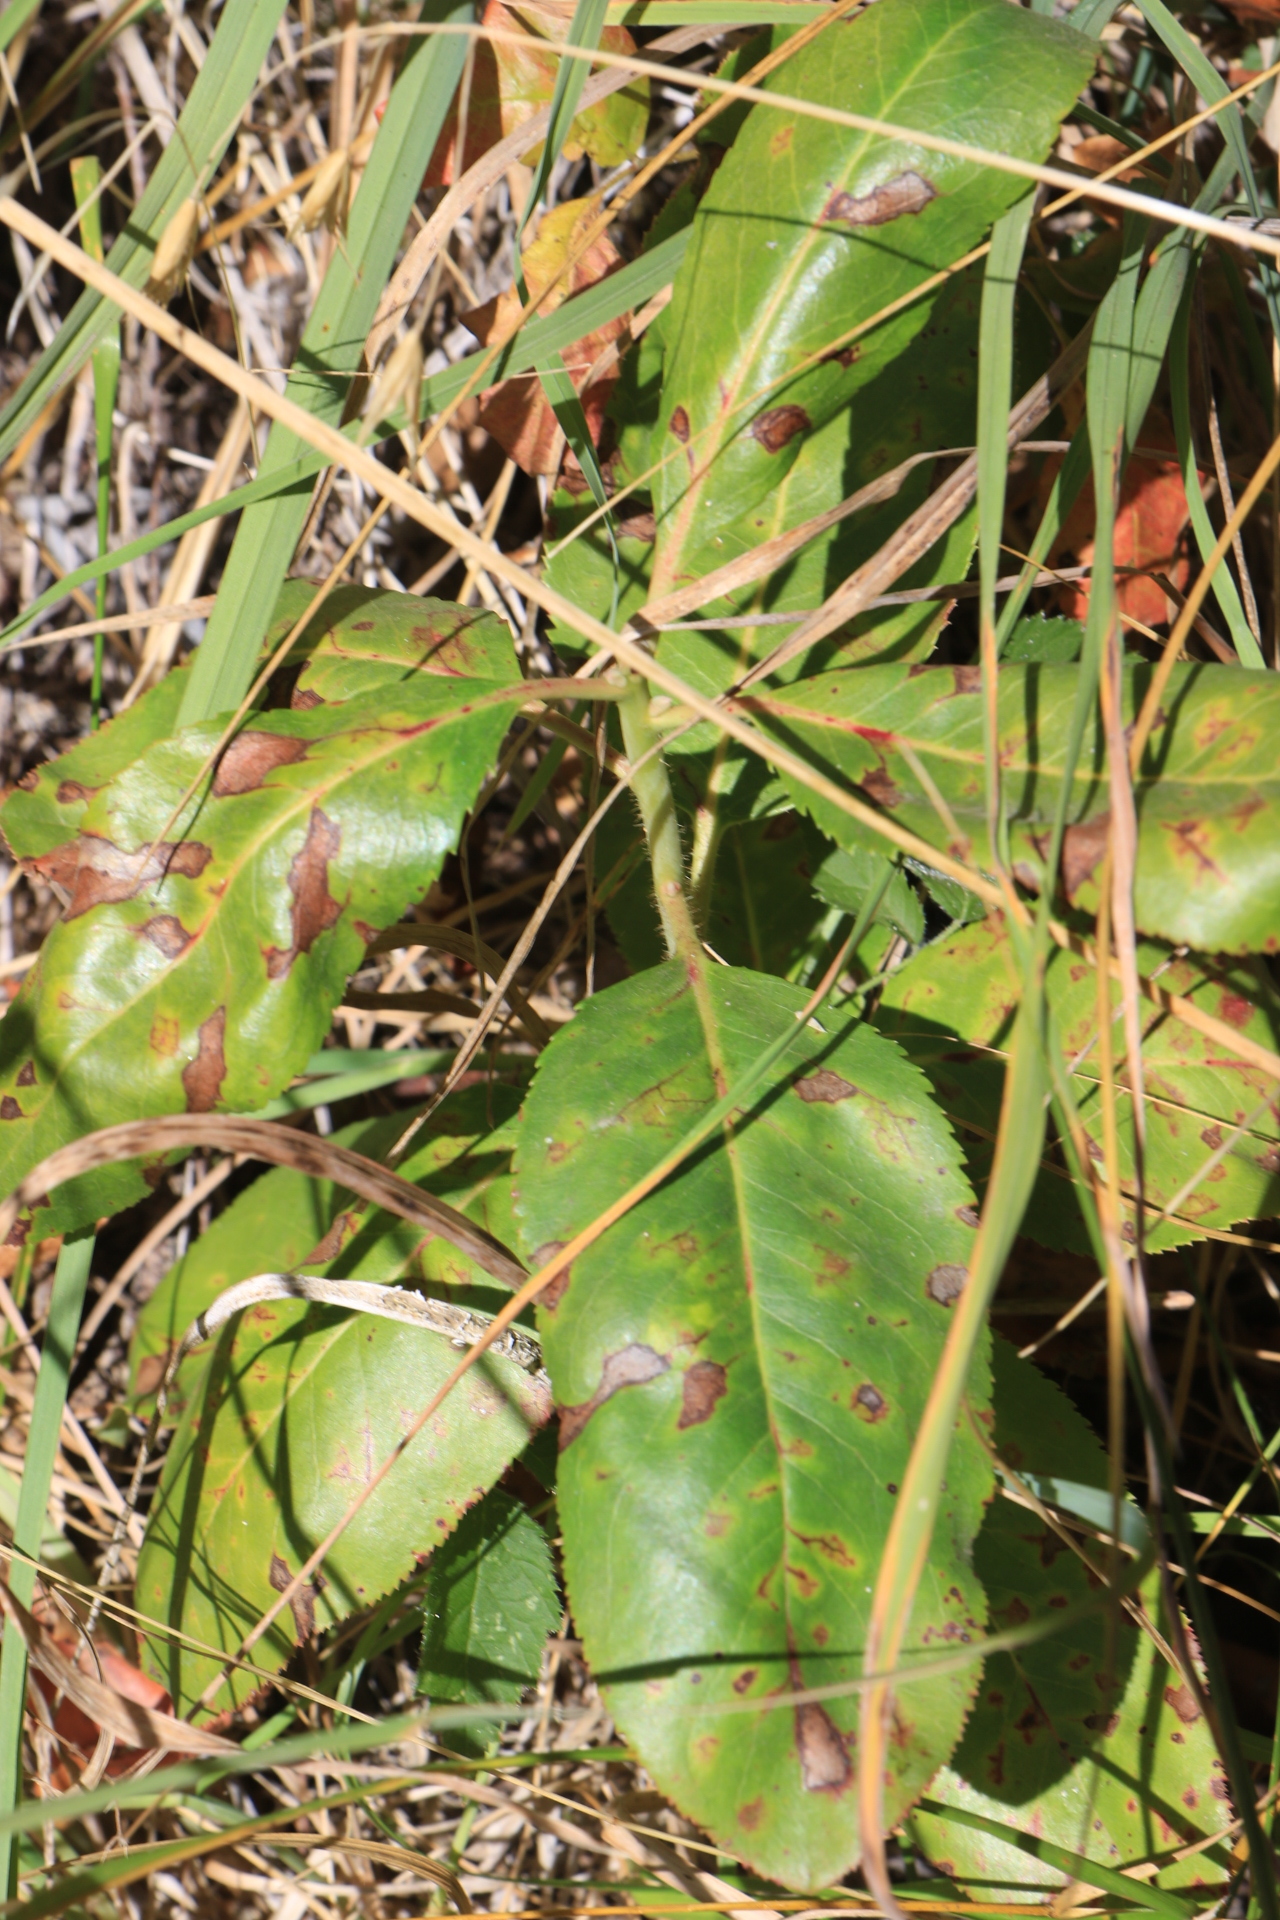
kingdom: Plantae
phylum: Tracheophyta
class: Magnoliopsida
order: Ericales
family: Ericaceae
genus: Arbutus
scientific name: Arbutus menziesii
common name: Pacific madrone
